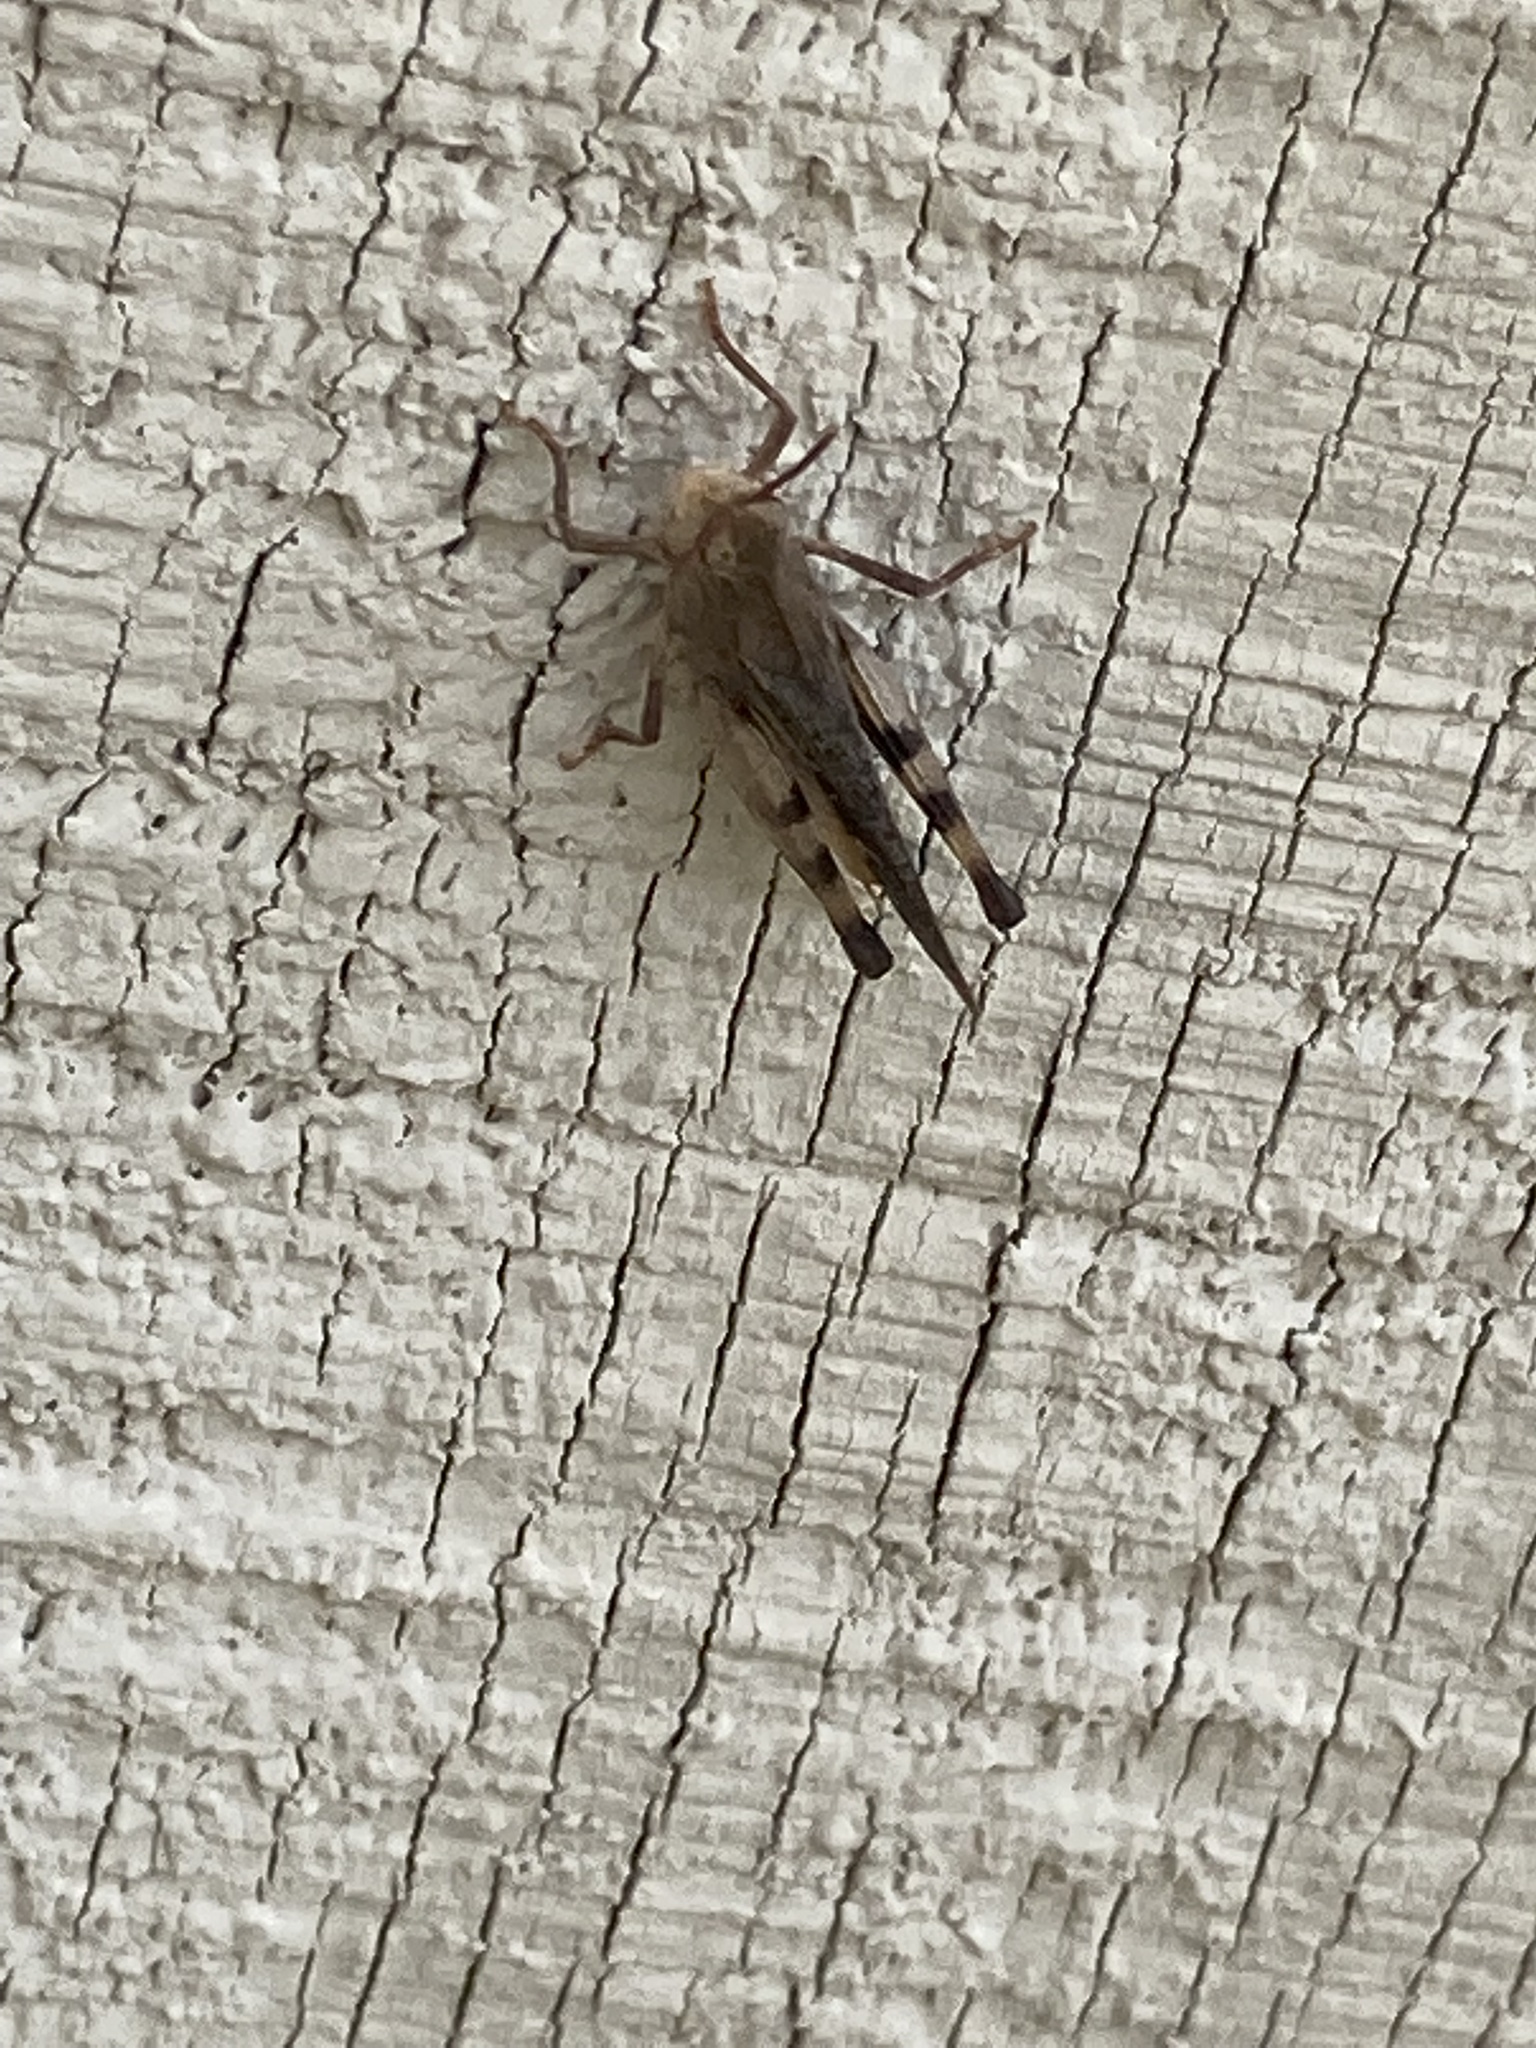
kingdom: Animalia
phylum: Arthropoda
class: Insecta
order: Orthoptera
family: Acrididae
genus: Chortophaga
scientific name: Chortophaga viridifasciata
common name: Green-striped grasshopper
